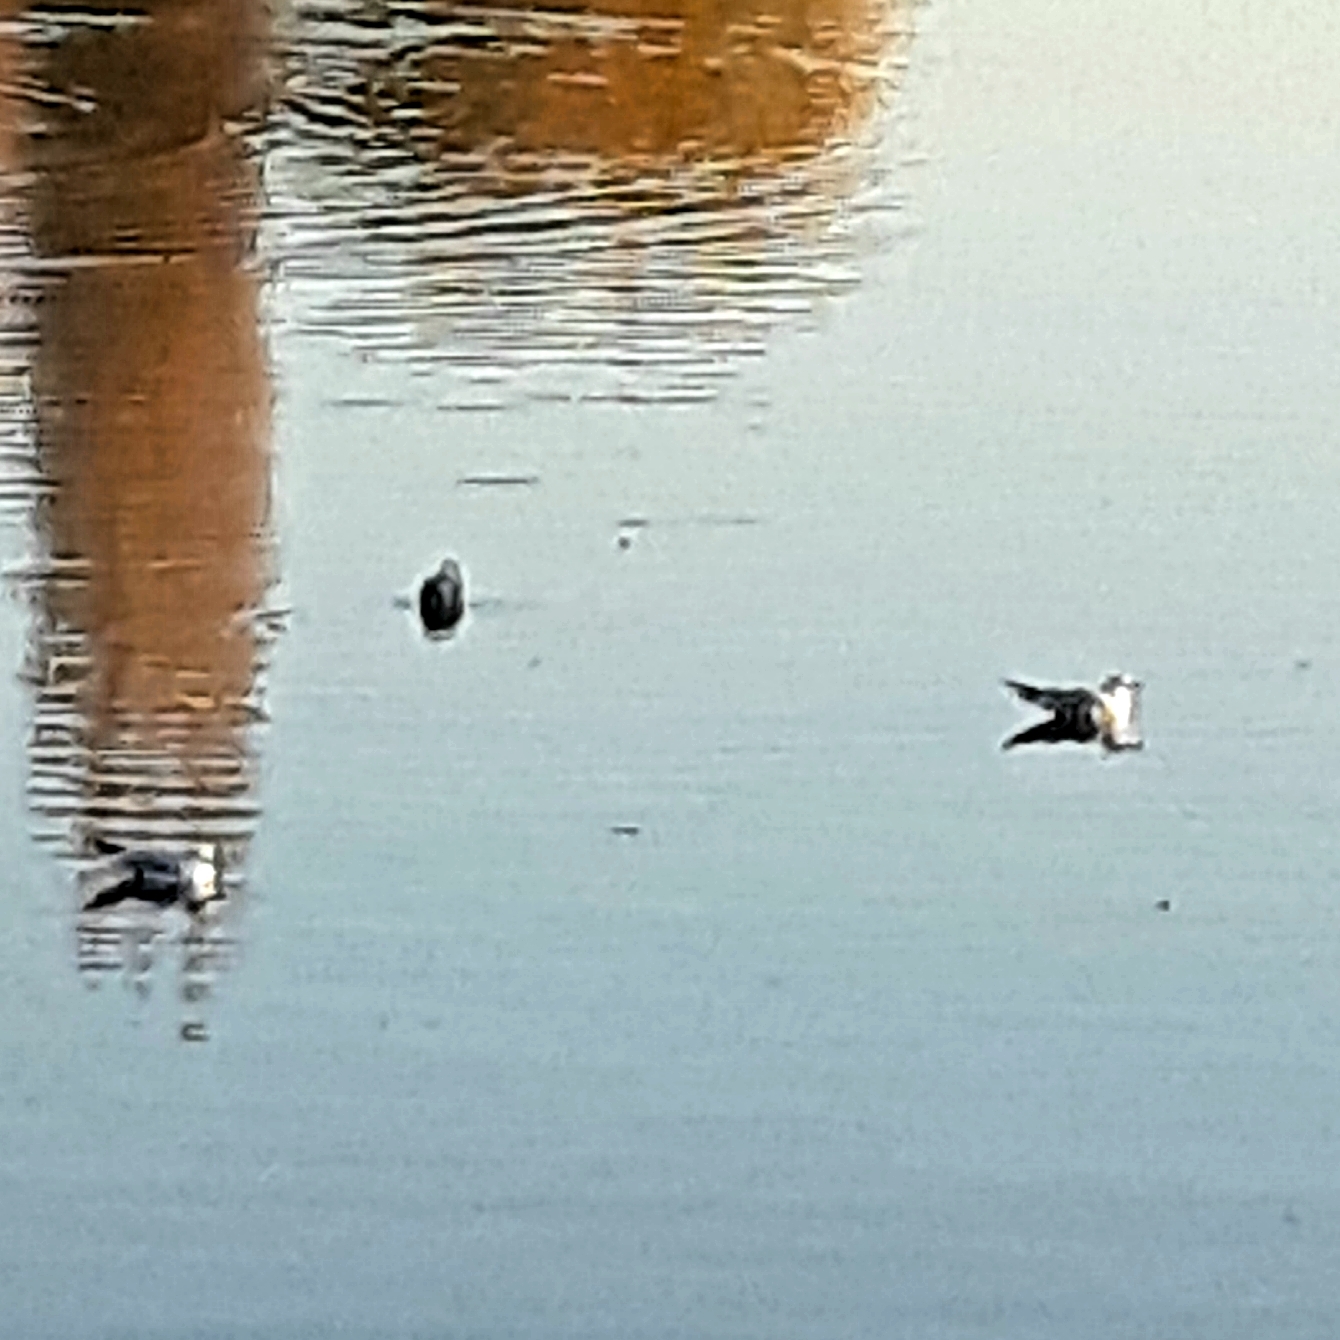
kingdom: Animalia
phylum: Chordata
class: Aves
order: Charadriiformes
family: Laridae
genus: Chroicocephalus
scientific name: Chroicocephalus ridibundus
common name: Black-headed gull
